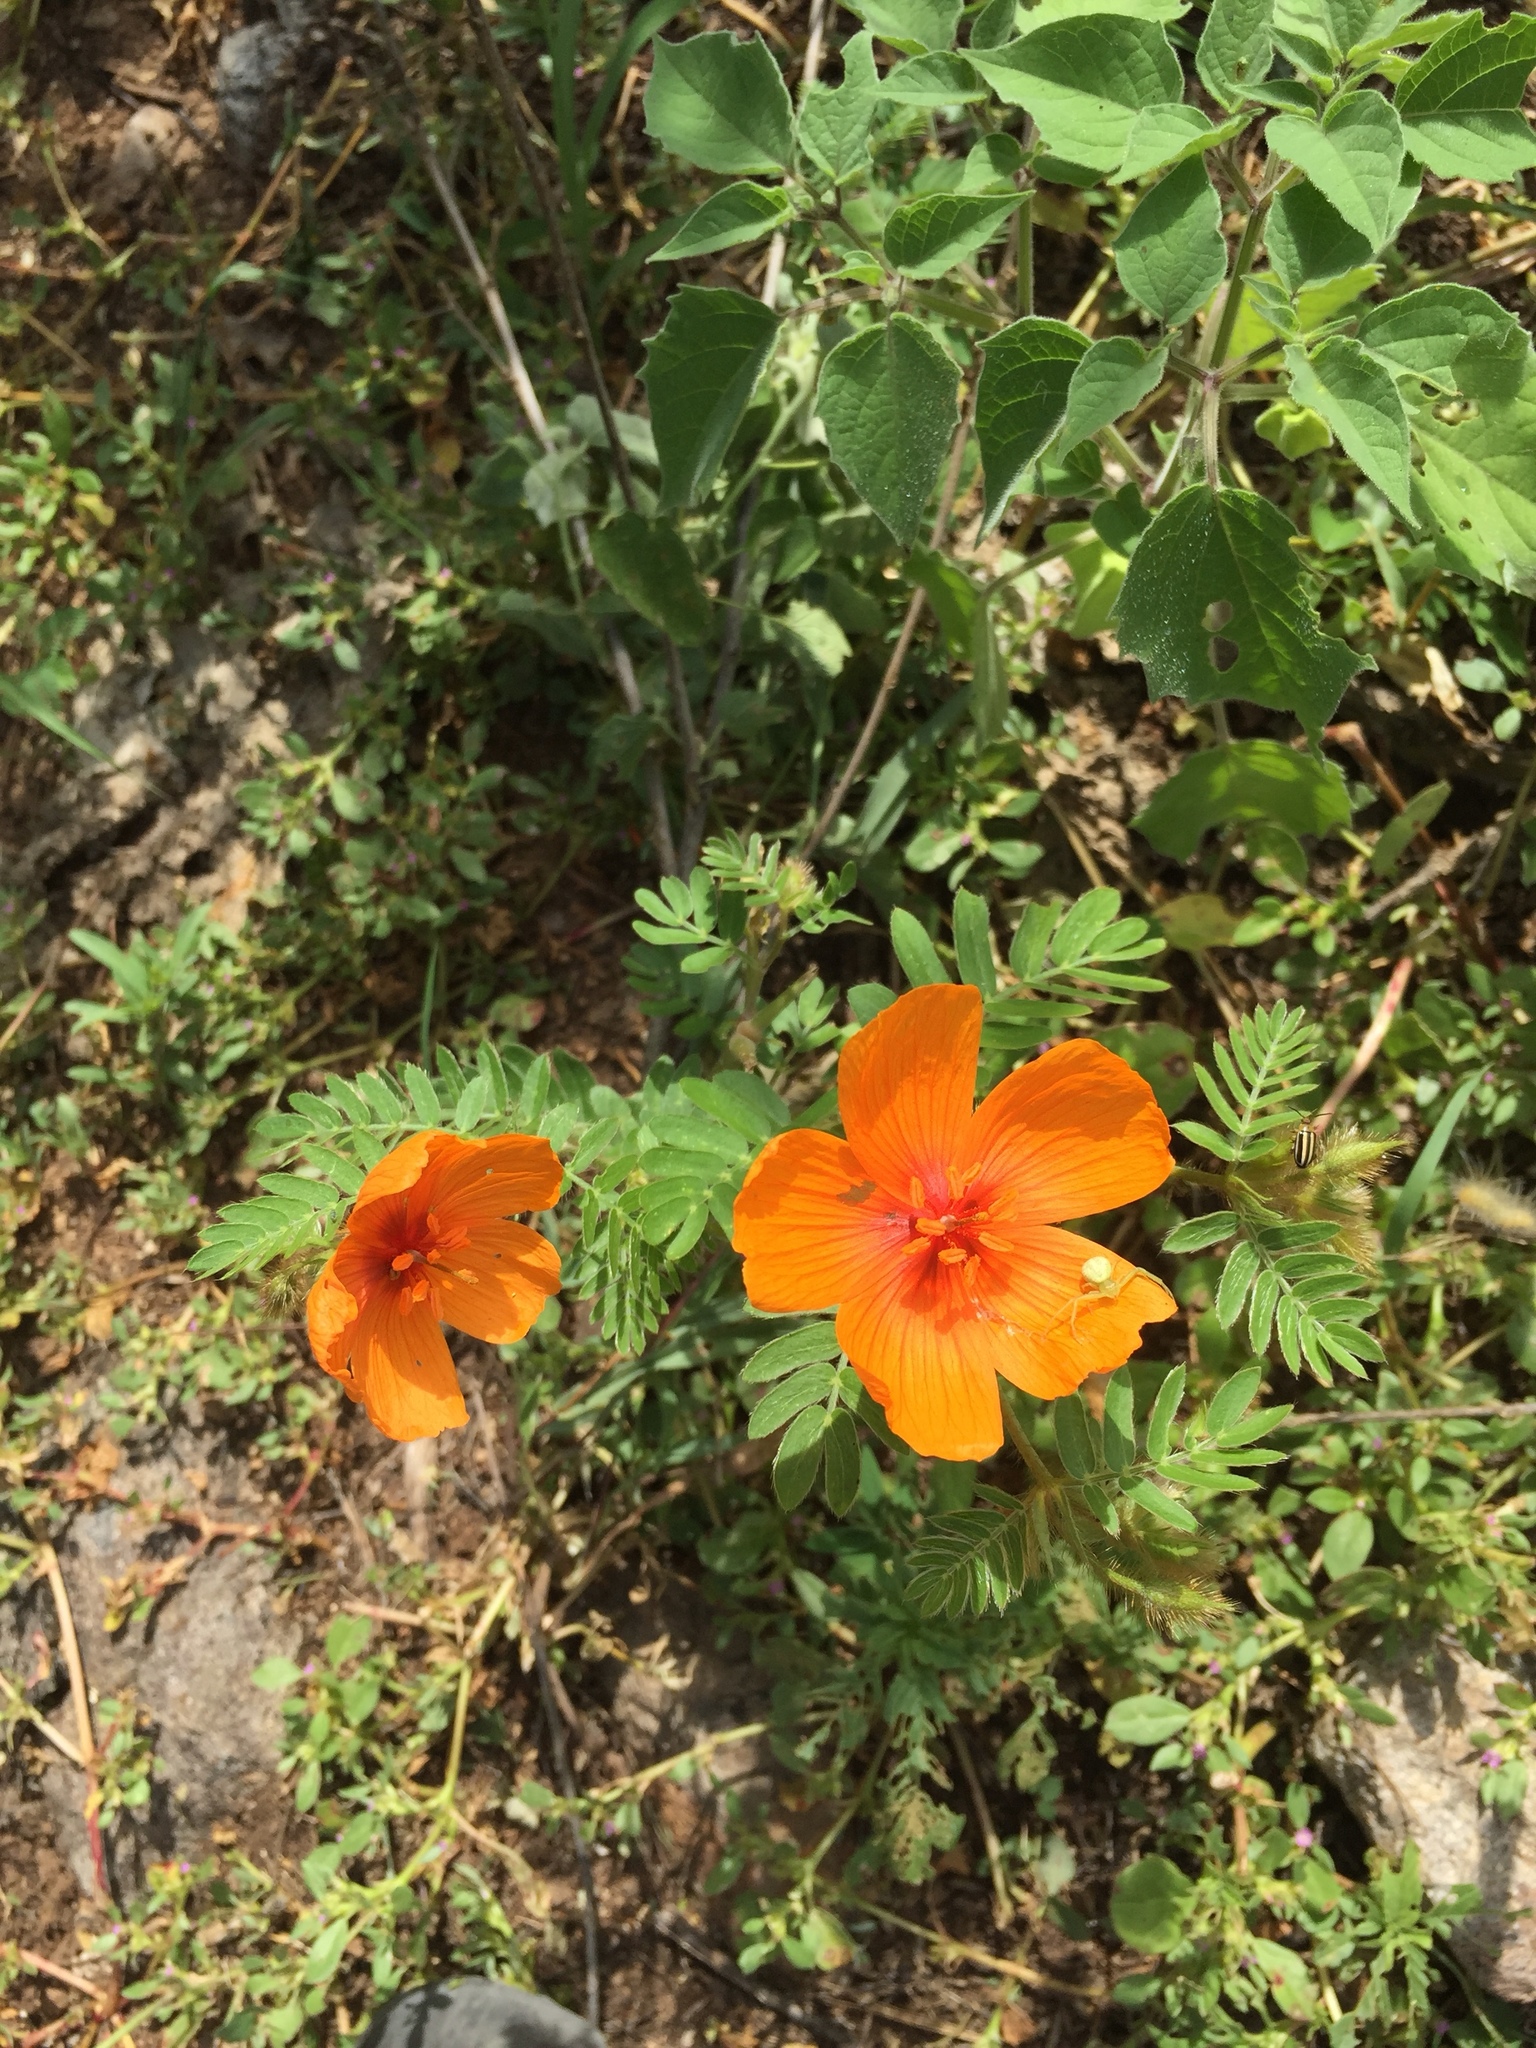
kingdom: Plantae
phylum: Tracheophyta
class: Magnoliopsida
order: Zygophyllales
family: Zygophyllaceae
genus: Kallstroemia
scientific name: Kallstroemia grandiflora
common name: Arizona-poppy
